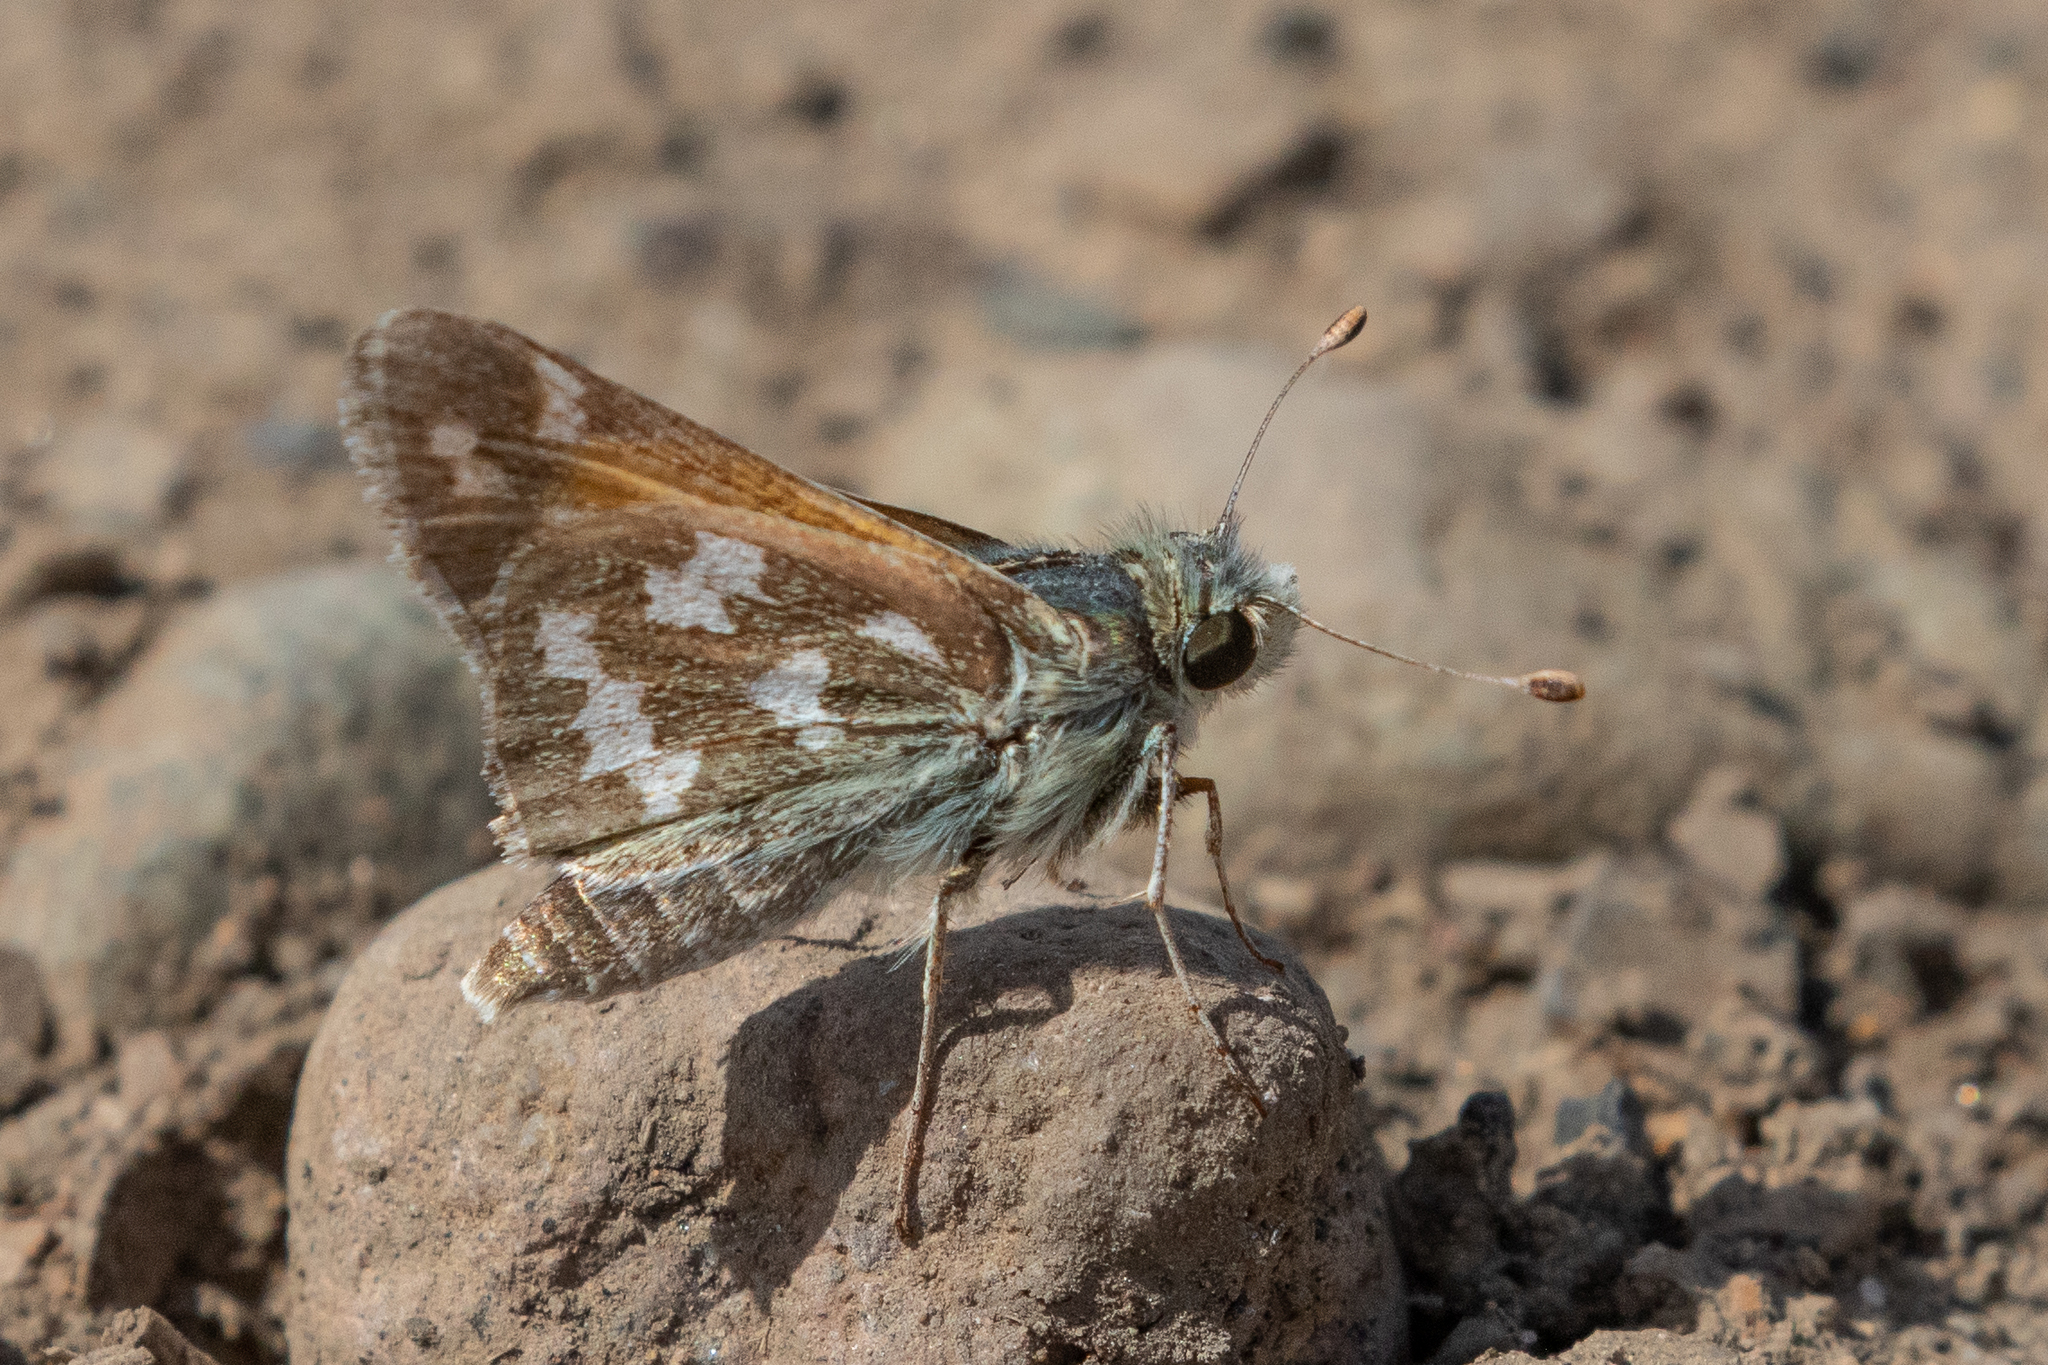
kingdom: Animalia
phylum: Arthropoda
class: Insecta
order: Lepidoptera
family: Hesperiidae
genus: Hesperia
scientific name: Hesperia juba
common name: Juba skipper
